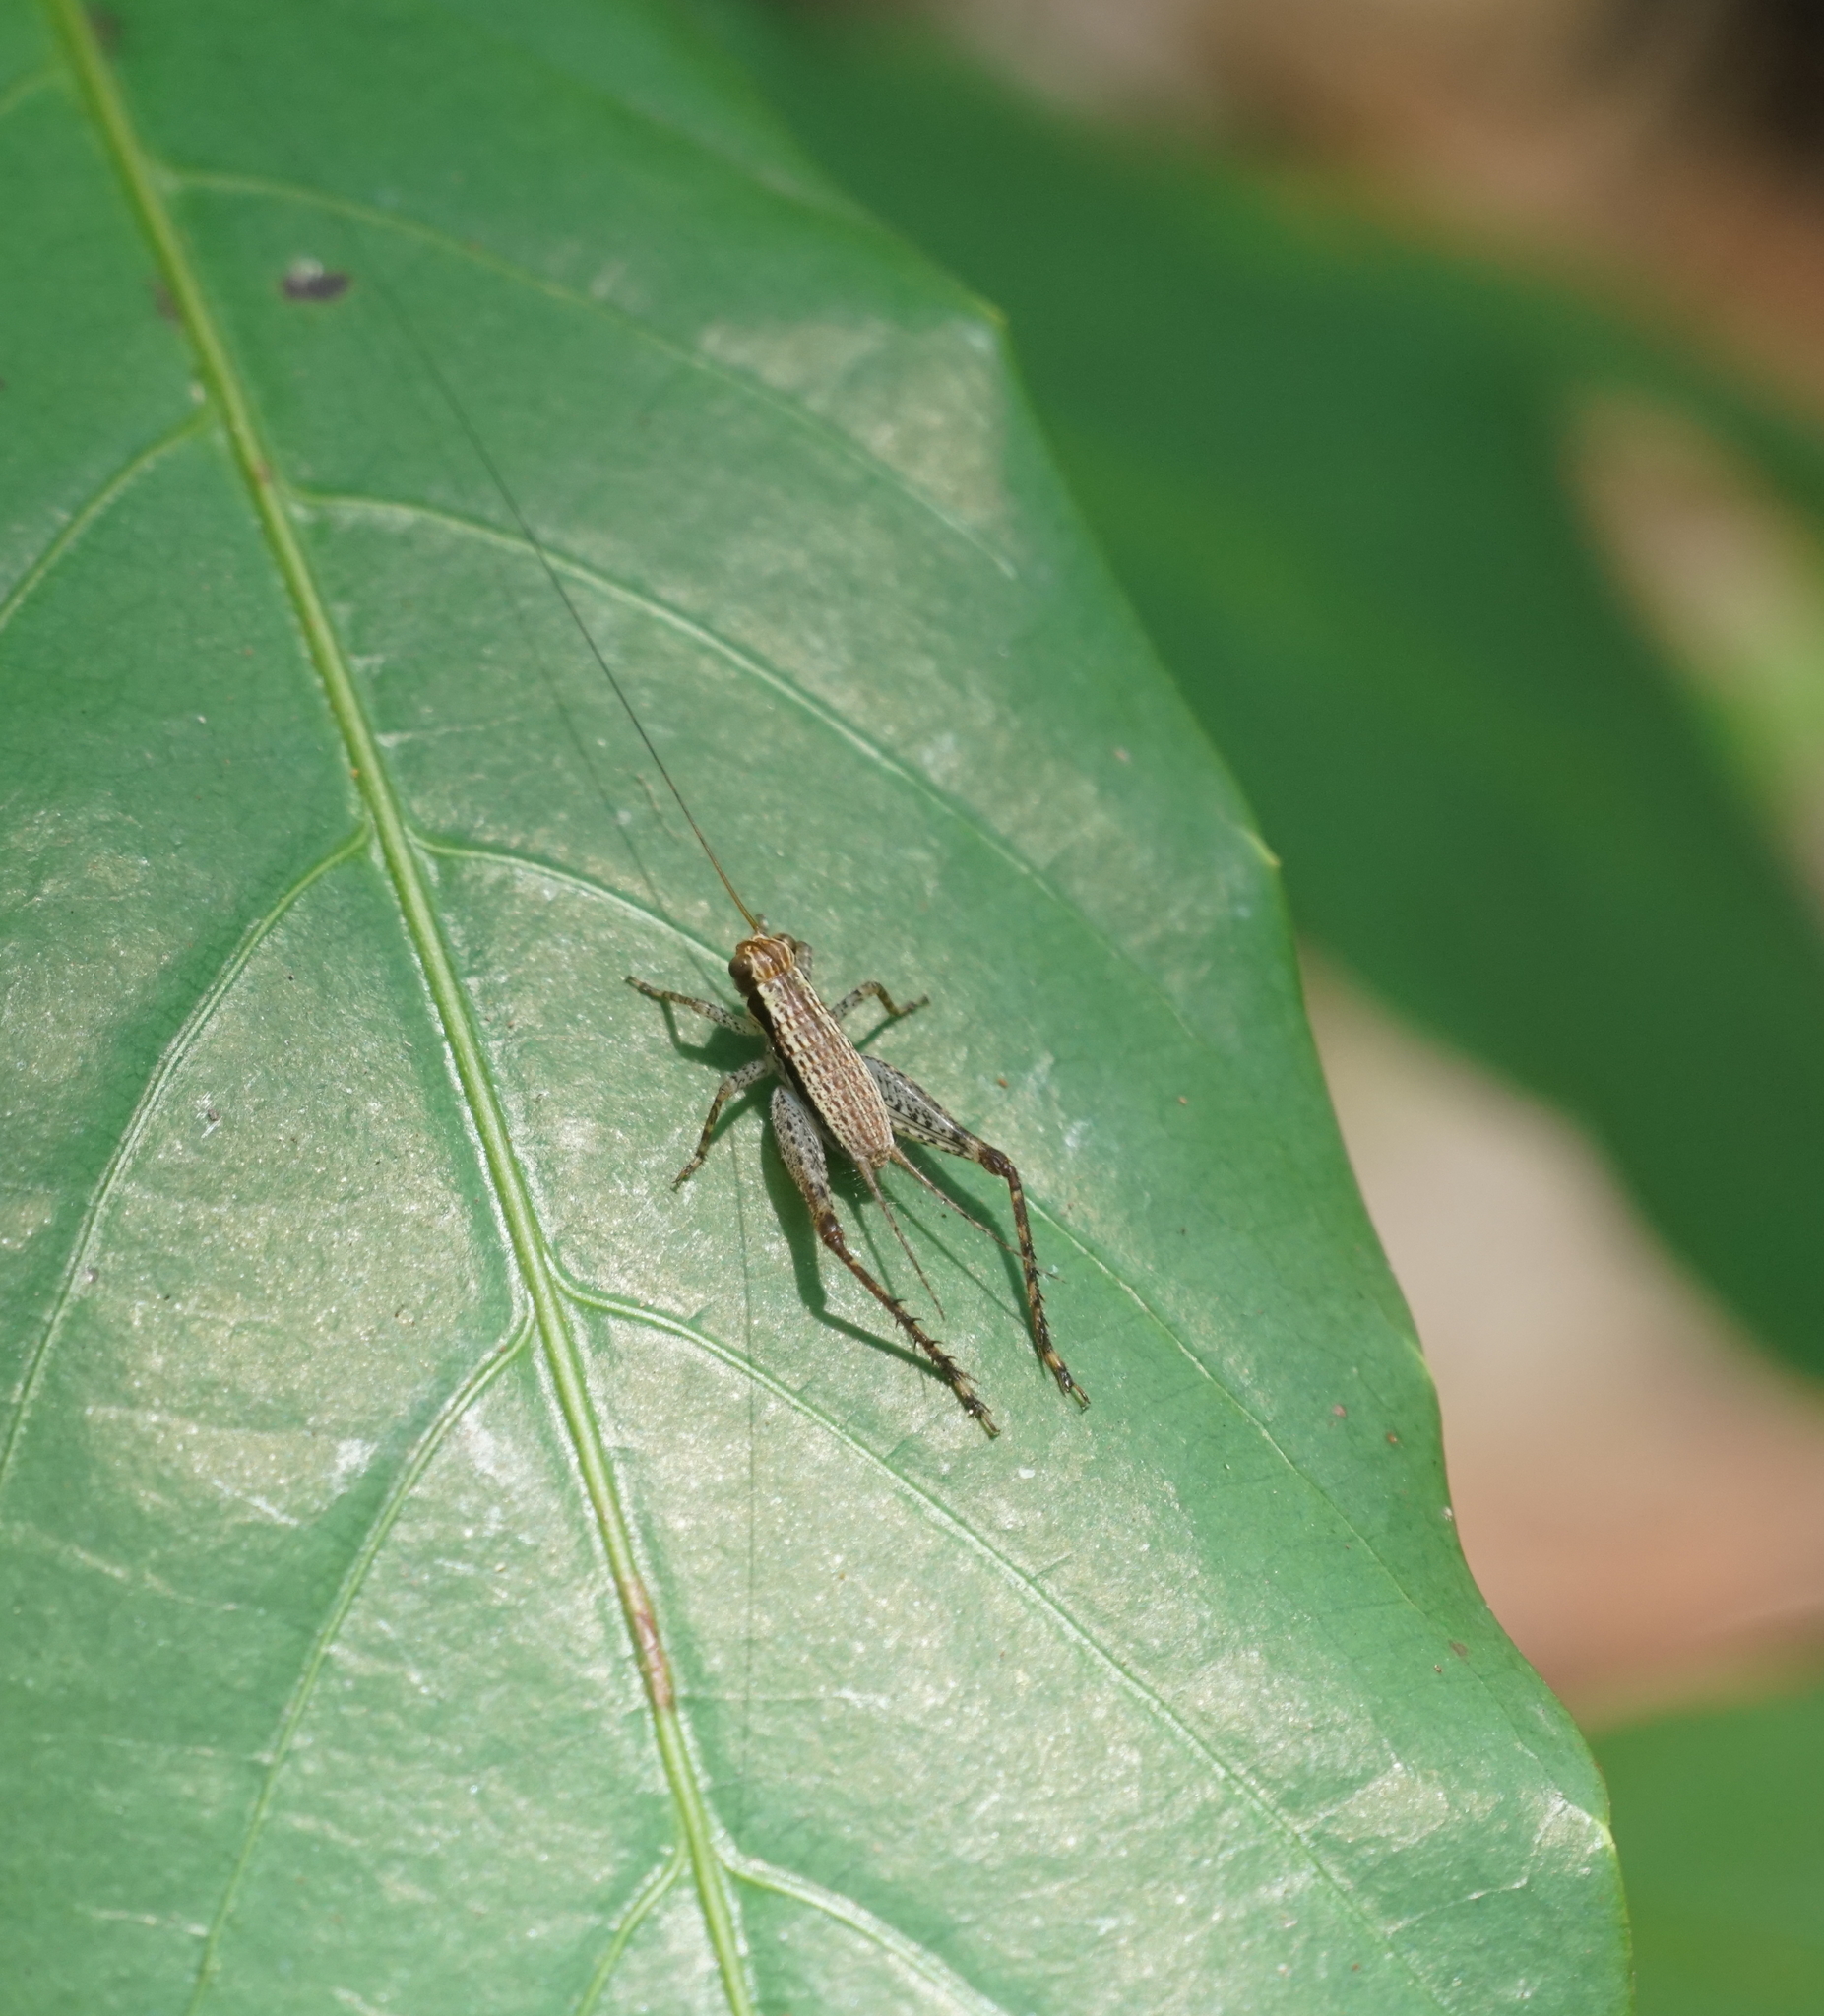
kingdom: Animalia
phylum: Arthropoda
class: Insecta
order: Orthoptera
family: Gryllidae
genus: Cardiodactylus
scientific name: Cardiodactylus novaeguineae
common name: Sad cricket
